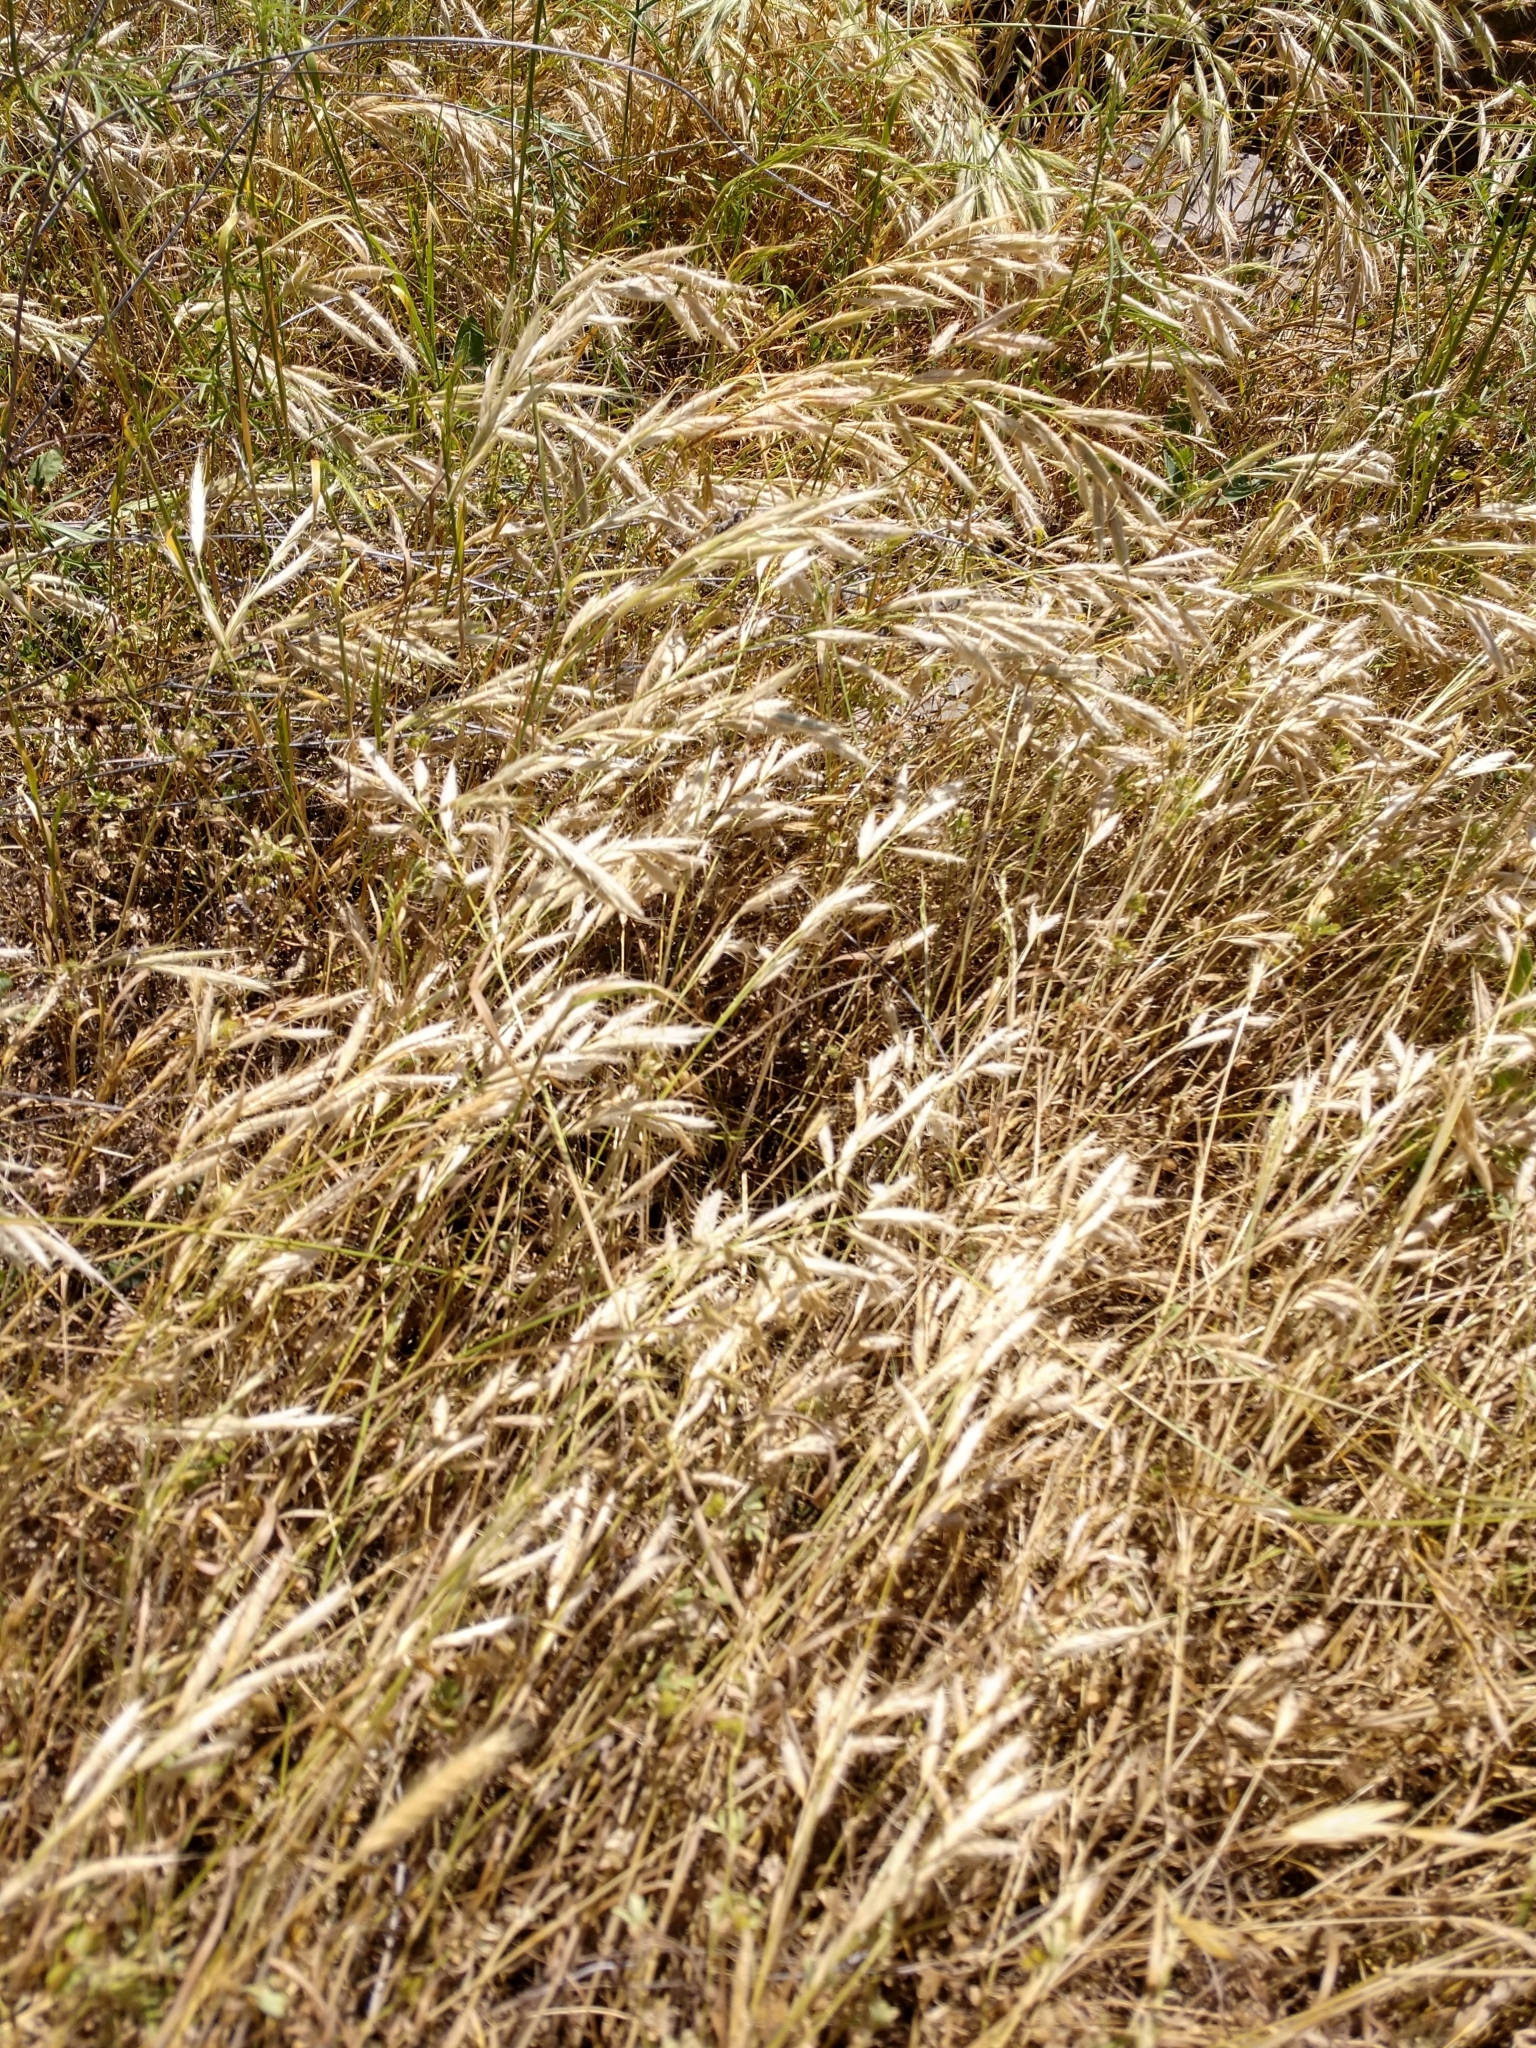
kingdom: Plantae
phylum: Tracheophyta
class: Liliopsida
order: Poales
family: Poaceae
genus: Bromus
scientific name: Bromus lanceolatus
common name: Mediterranean brome
